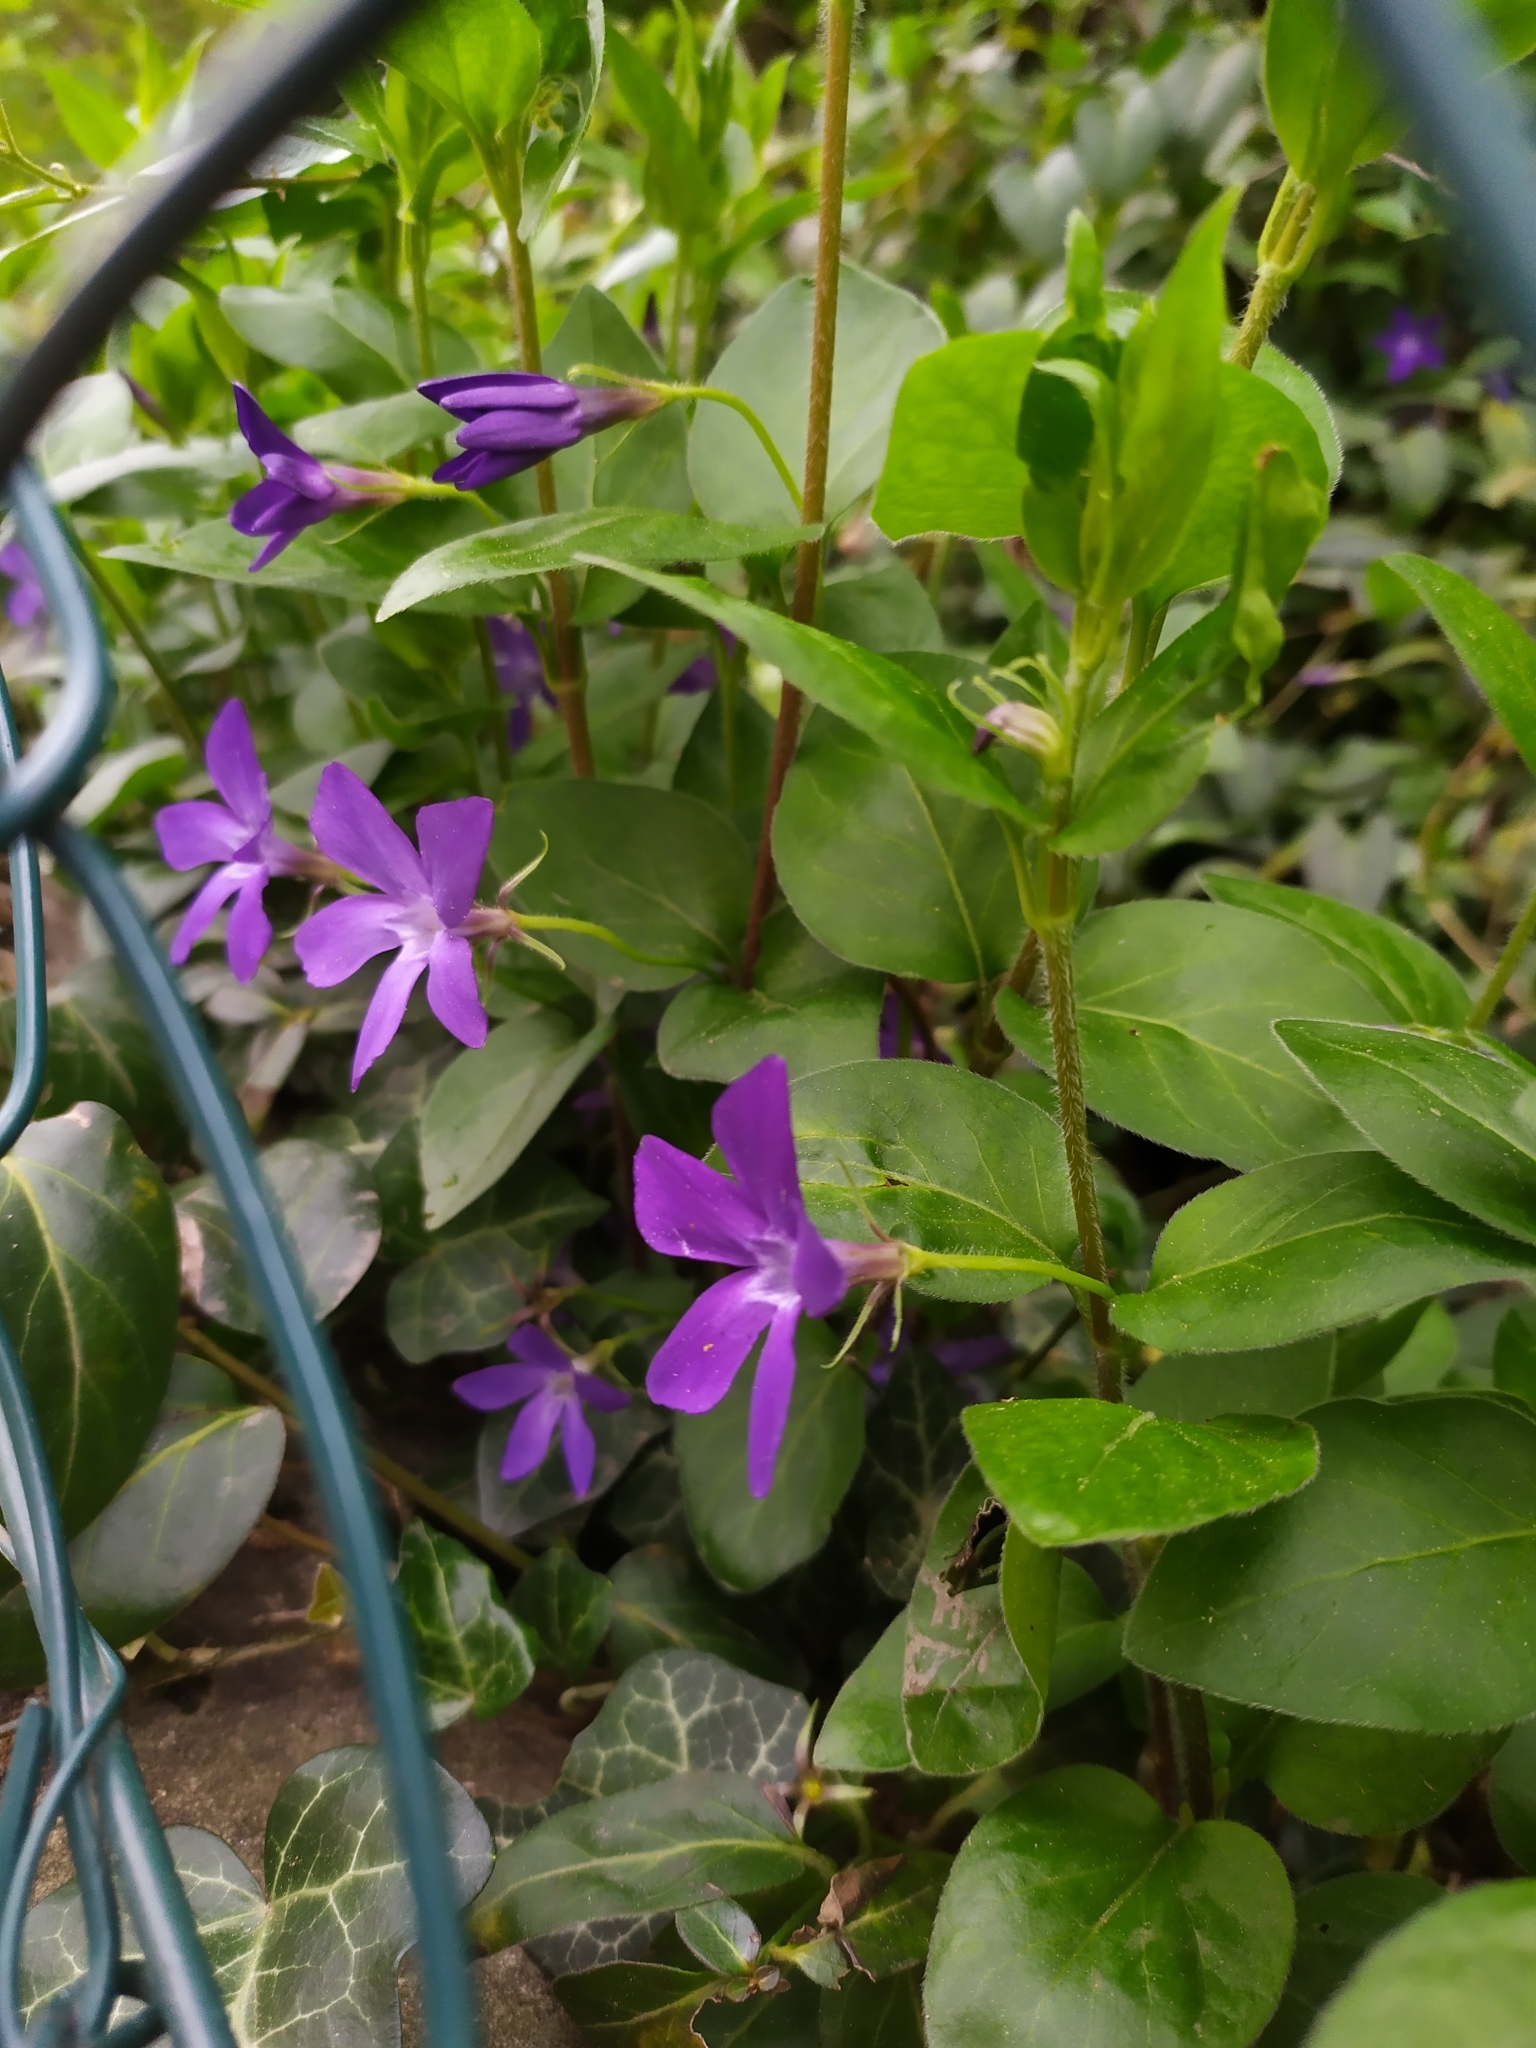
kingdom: Plantae
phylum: Tracheophyta
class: Magnoliopsida
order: Gentianales
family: Apocynaceae
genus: Vinca
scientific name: Vinca major
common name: Greater periwinkle
